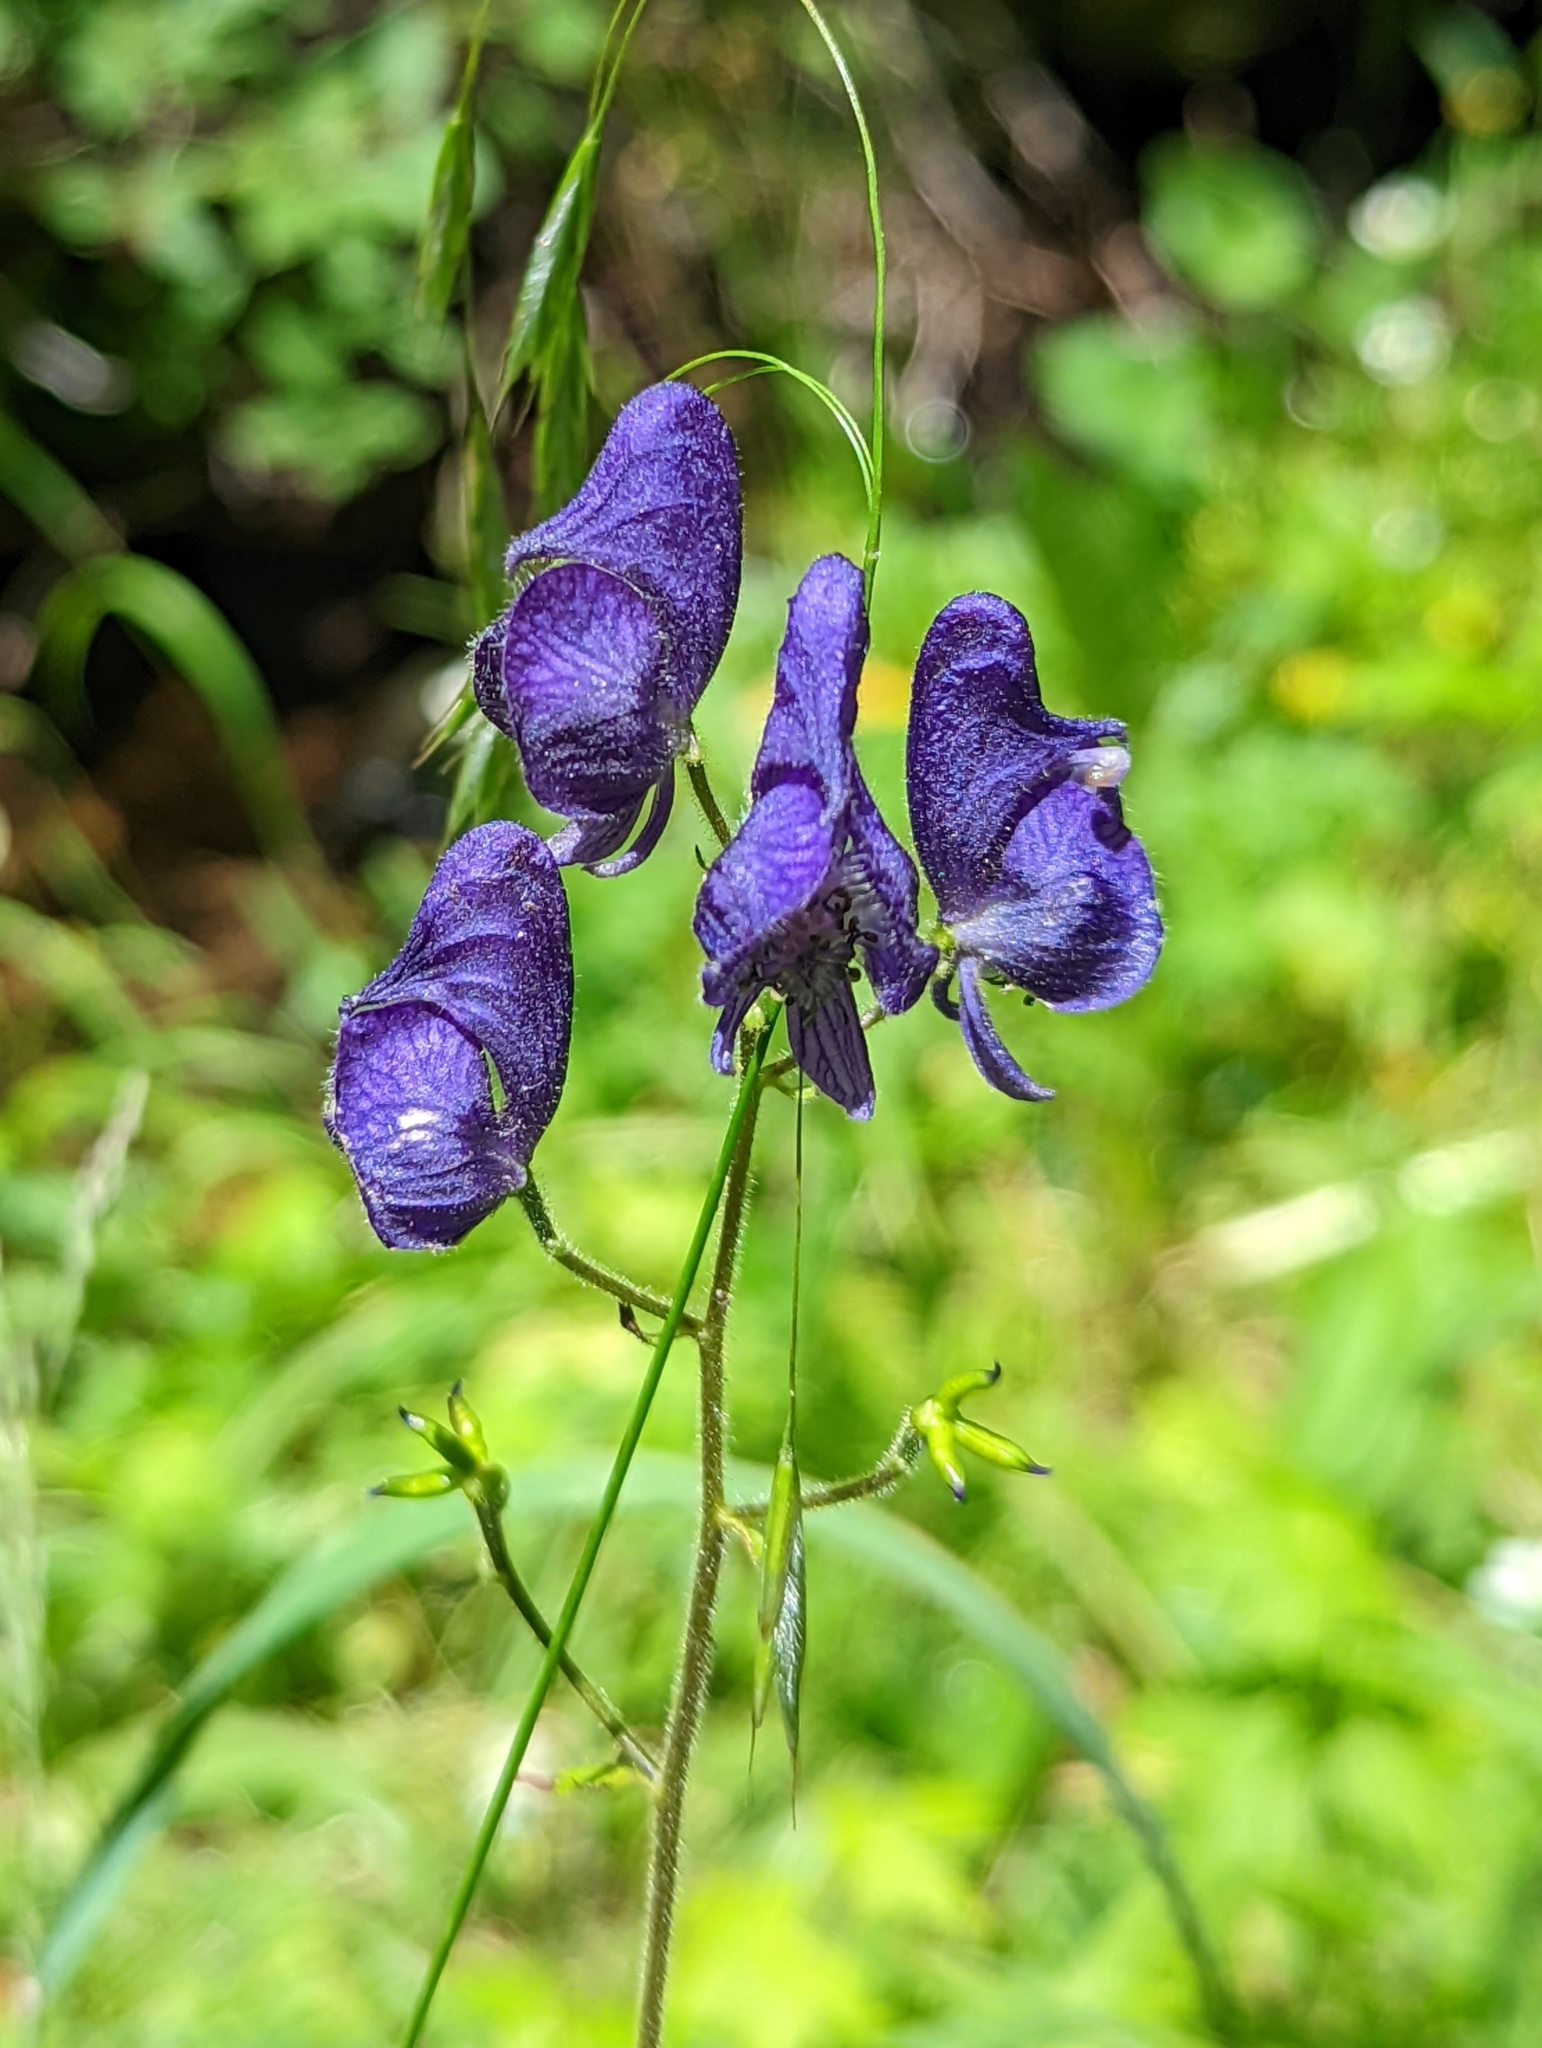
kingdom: Plantae
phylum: Tracheophyta
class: Magnoliopsida
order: Ranunculales
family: Ranunculaceae
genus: Aconitum
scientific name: Aconitum columbianum
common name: Columbia aconite
